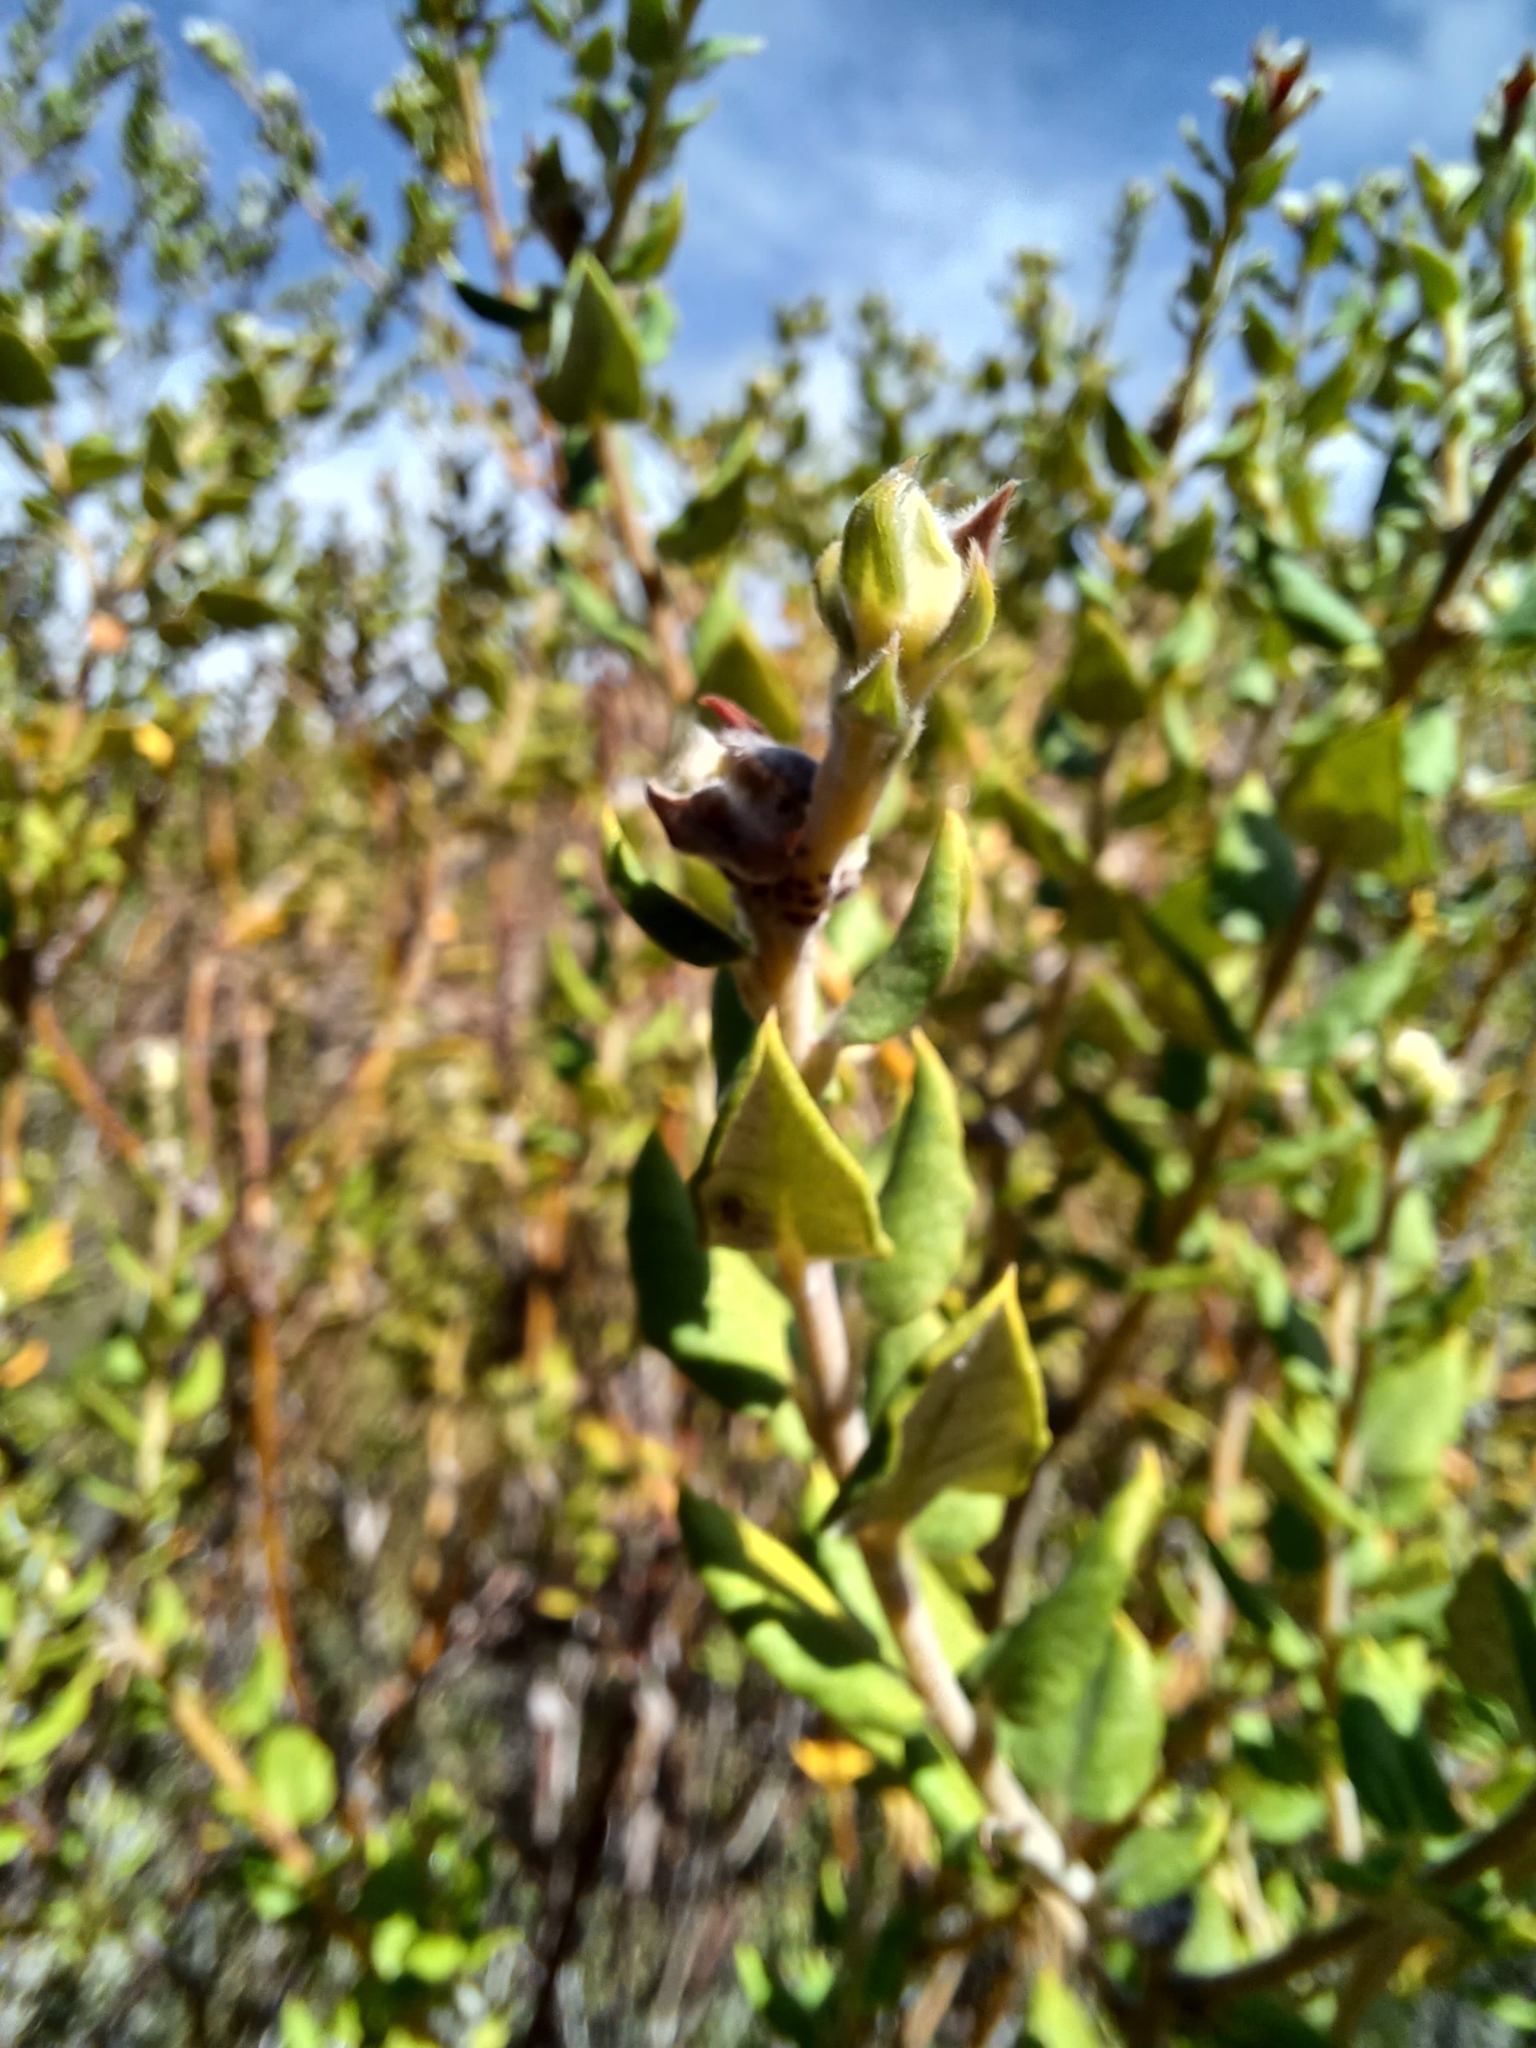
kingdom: Plantae
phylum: Tracheophyta
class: Magnoliopsida
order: Rosales
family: Rhamnaceae
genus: Phylica
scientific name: Phylica nervosa
